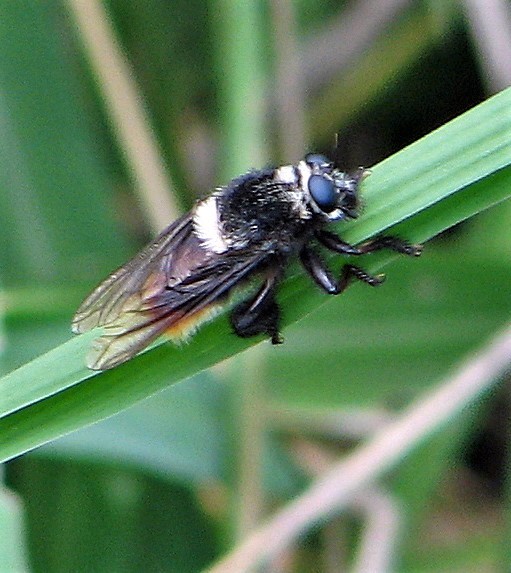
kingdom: Animalia
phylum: Arthropoda
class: Insecta
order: Diptera
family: Asilidae
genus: Mallophora
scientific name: Mallophora ruficauda
